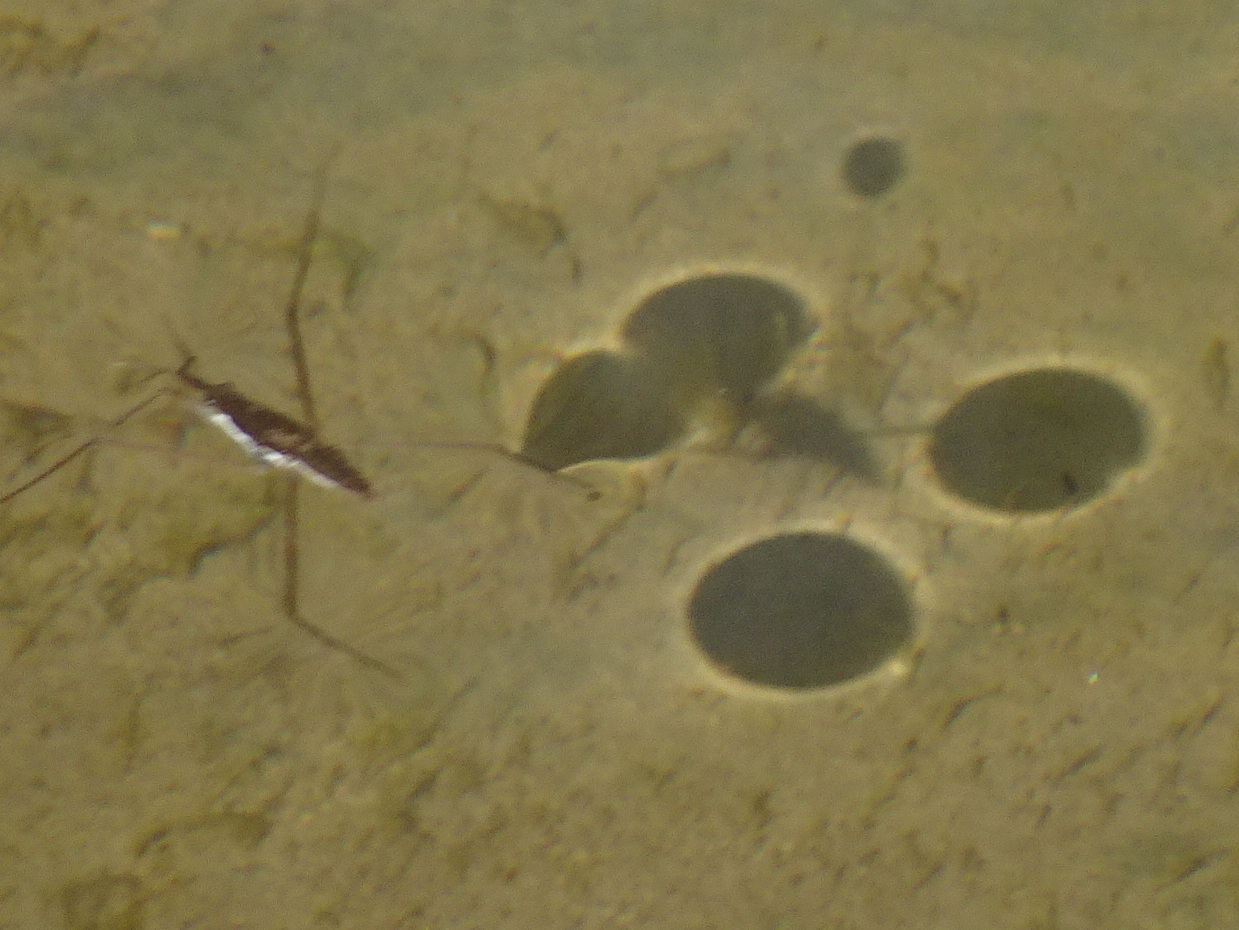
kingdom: Animalia
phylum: Arthropoda
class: Insecta
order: Hemiptera
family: Gerridae
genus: Aquarius
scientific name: Aquarius remigis
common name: Common water strider
